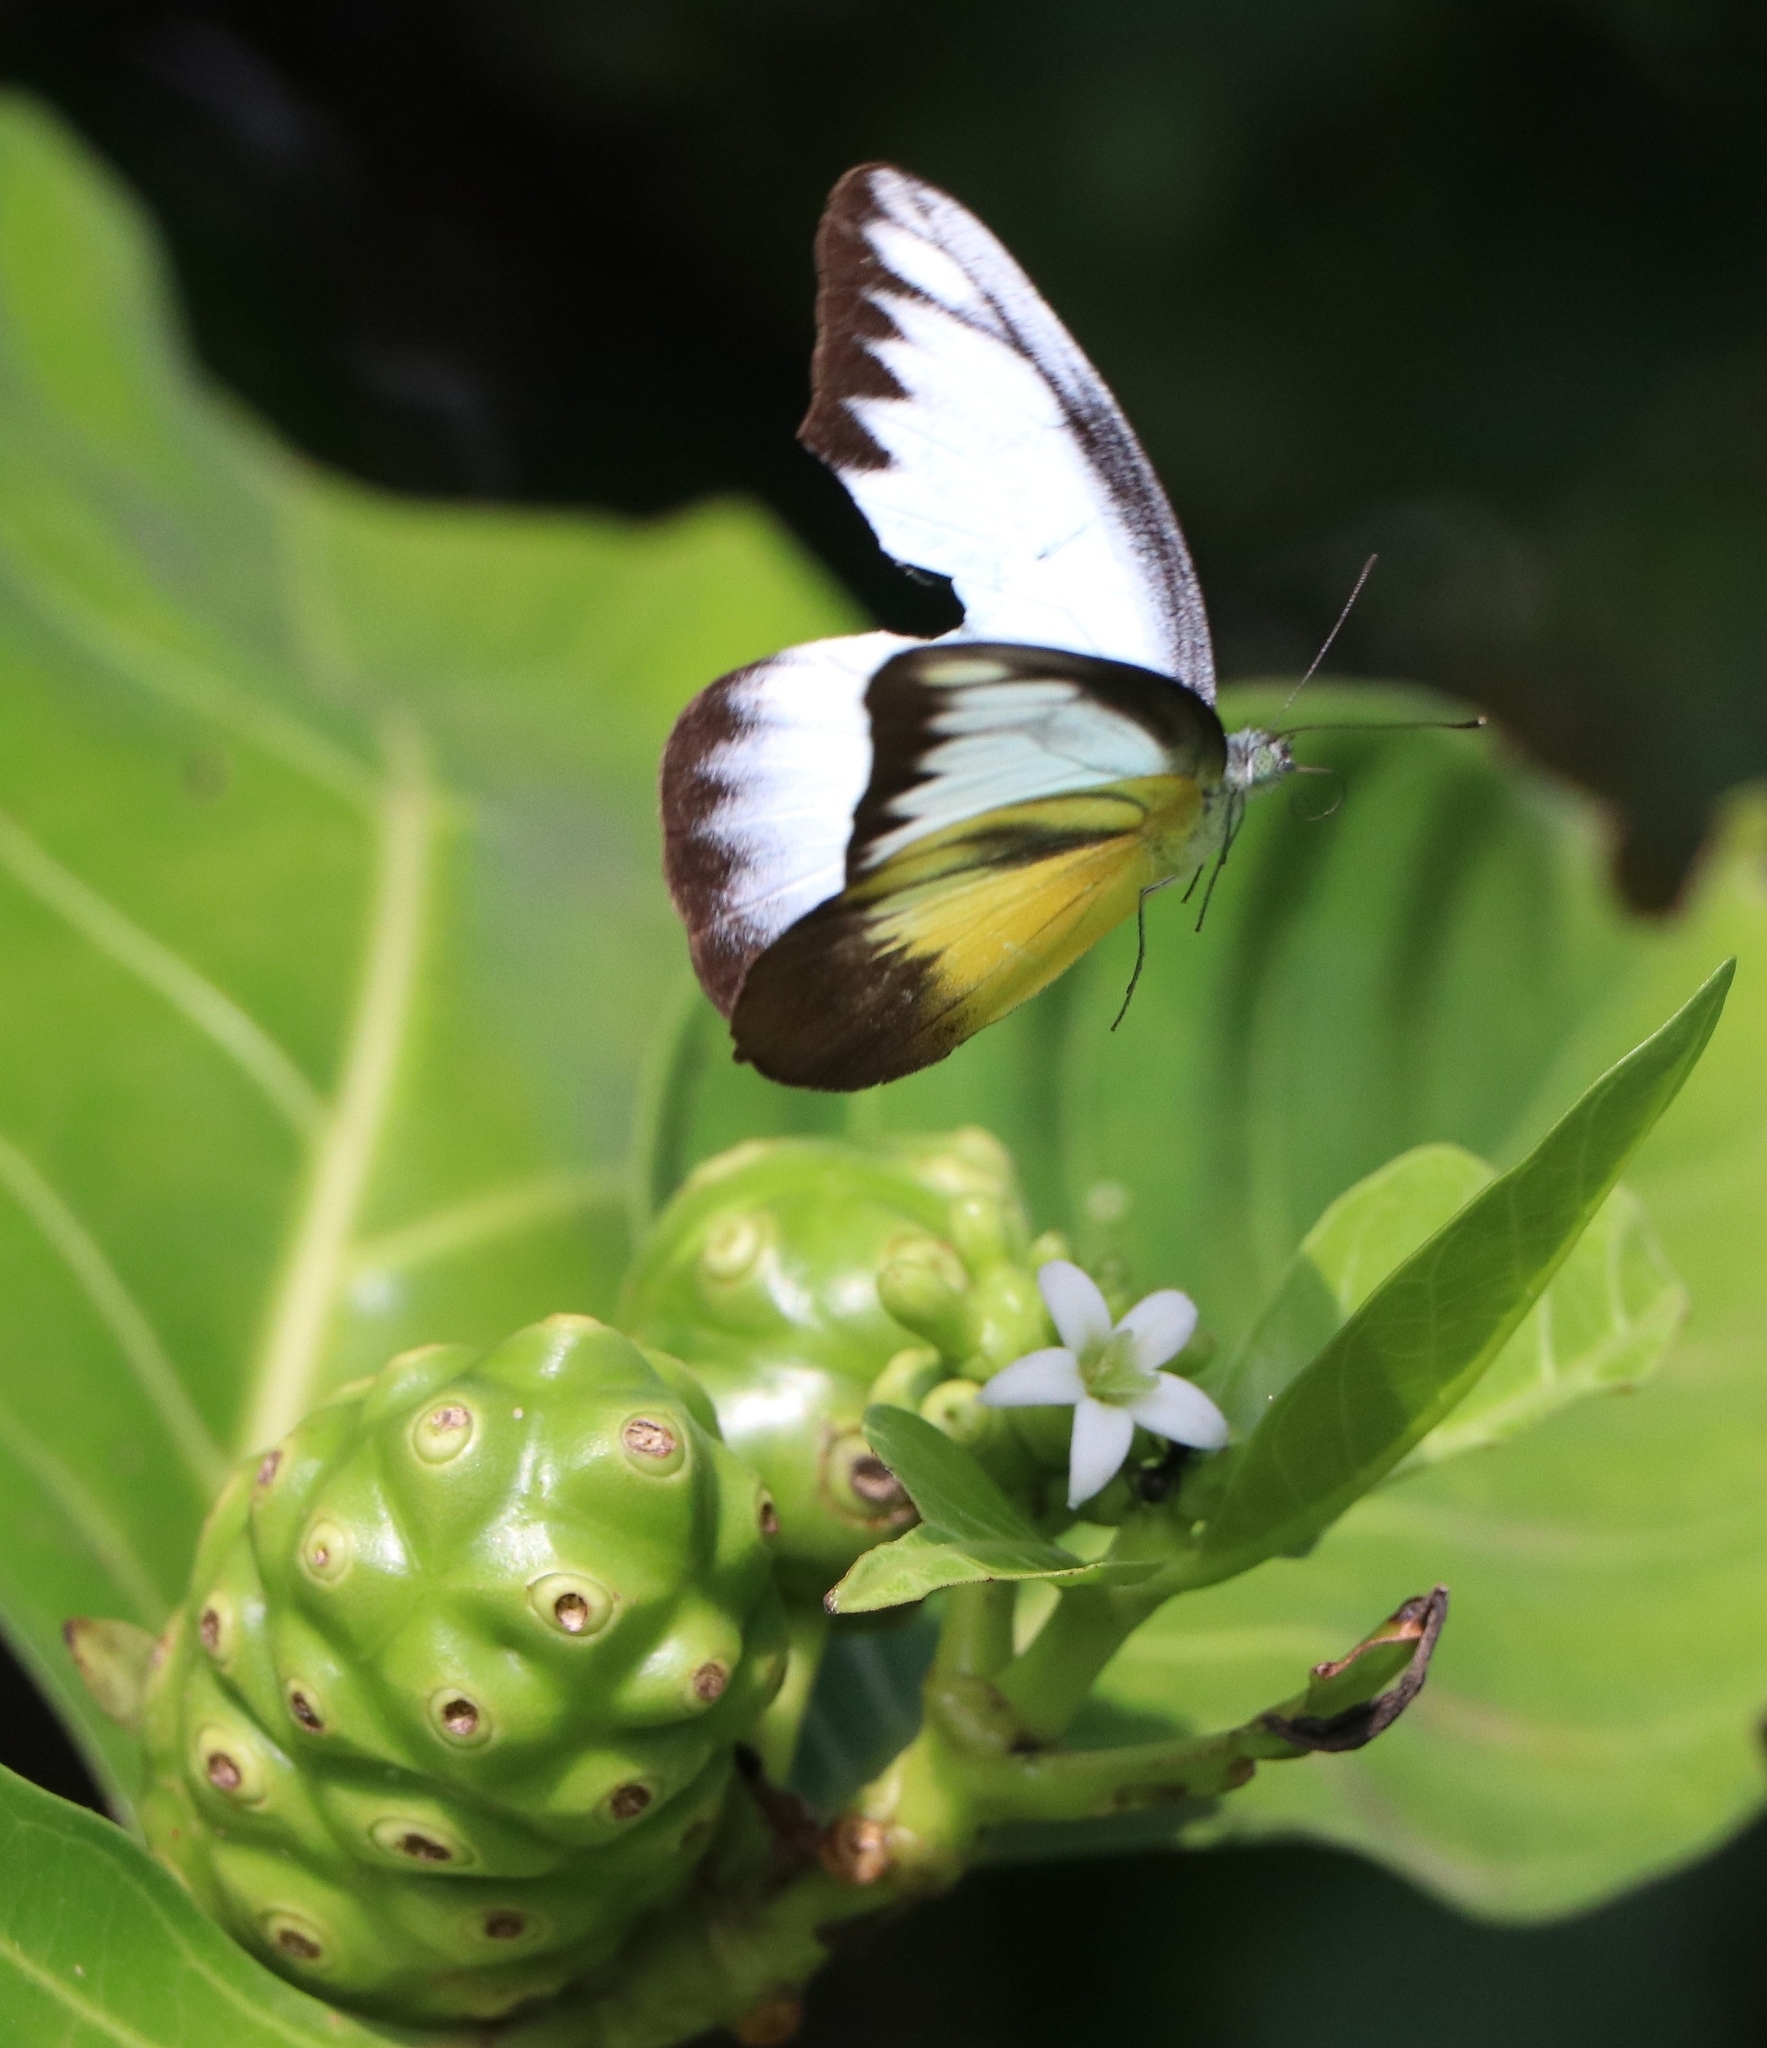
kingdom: Animalia
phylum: Arthropoda
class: Insecta
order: Lepidoptera
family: Pieridae
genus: Appias
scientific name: Appias lyncida
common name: Chocolate albatross
